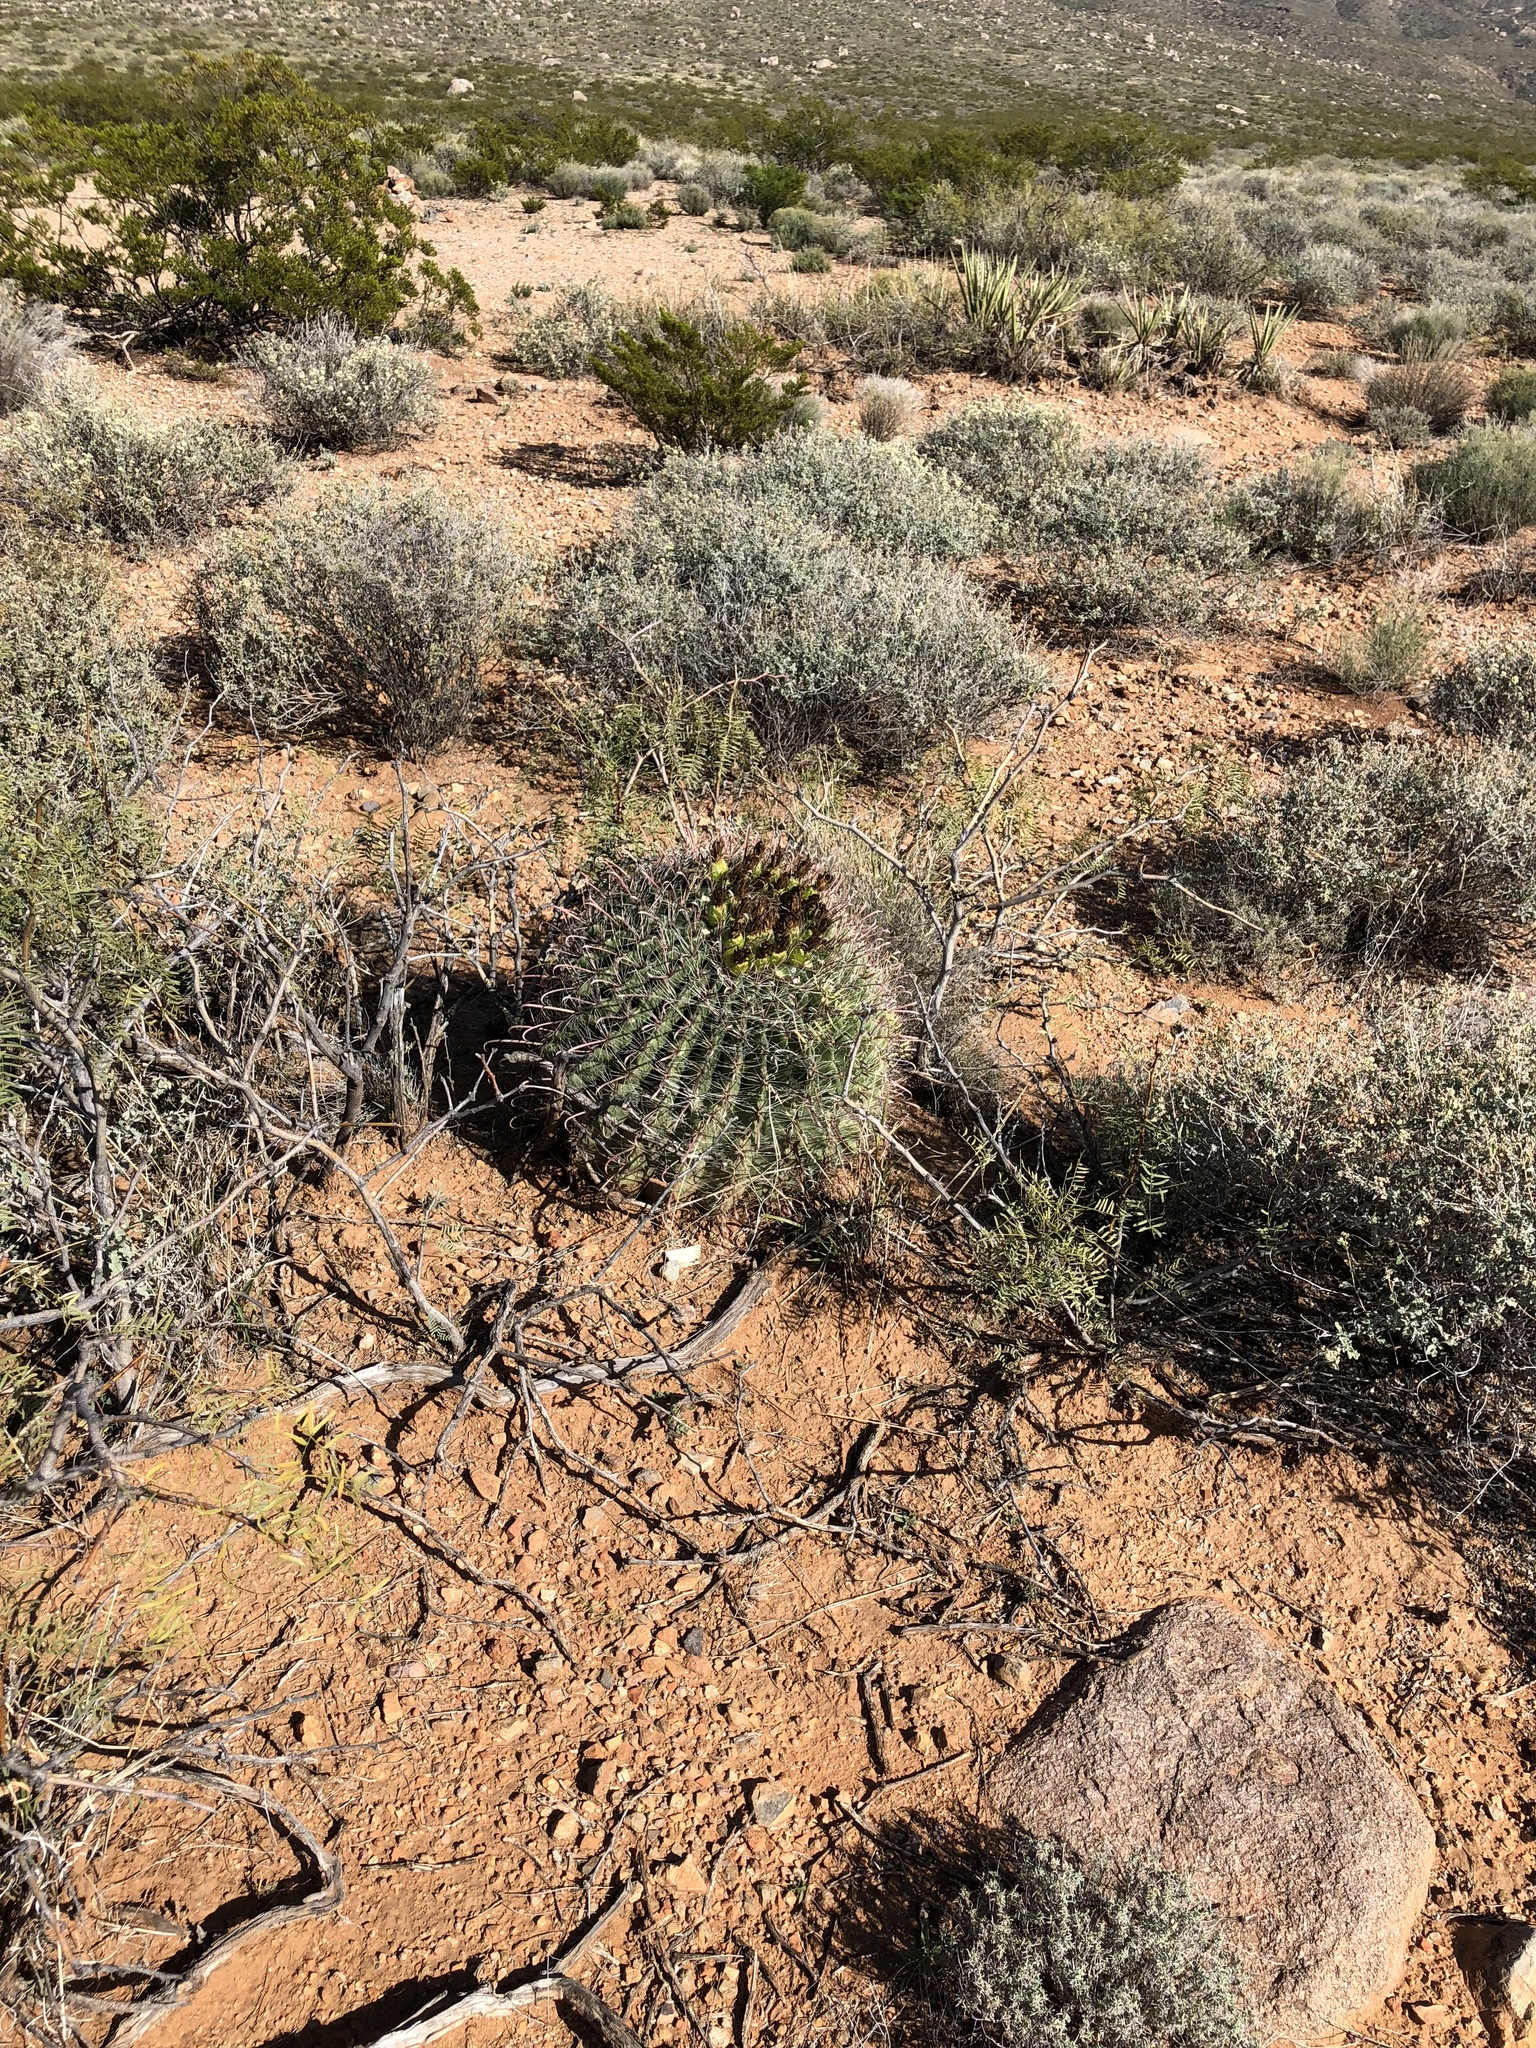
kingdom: Plantae
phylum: Tracheophyta
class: Magnoliopsida
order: Caryophyllales
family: Cactaceae
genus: Ferocactus
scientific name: Ferocactus wislizeni
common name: Candy barrel cactus
